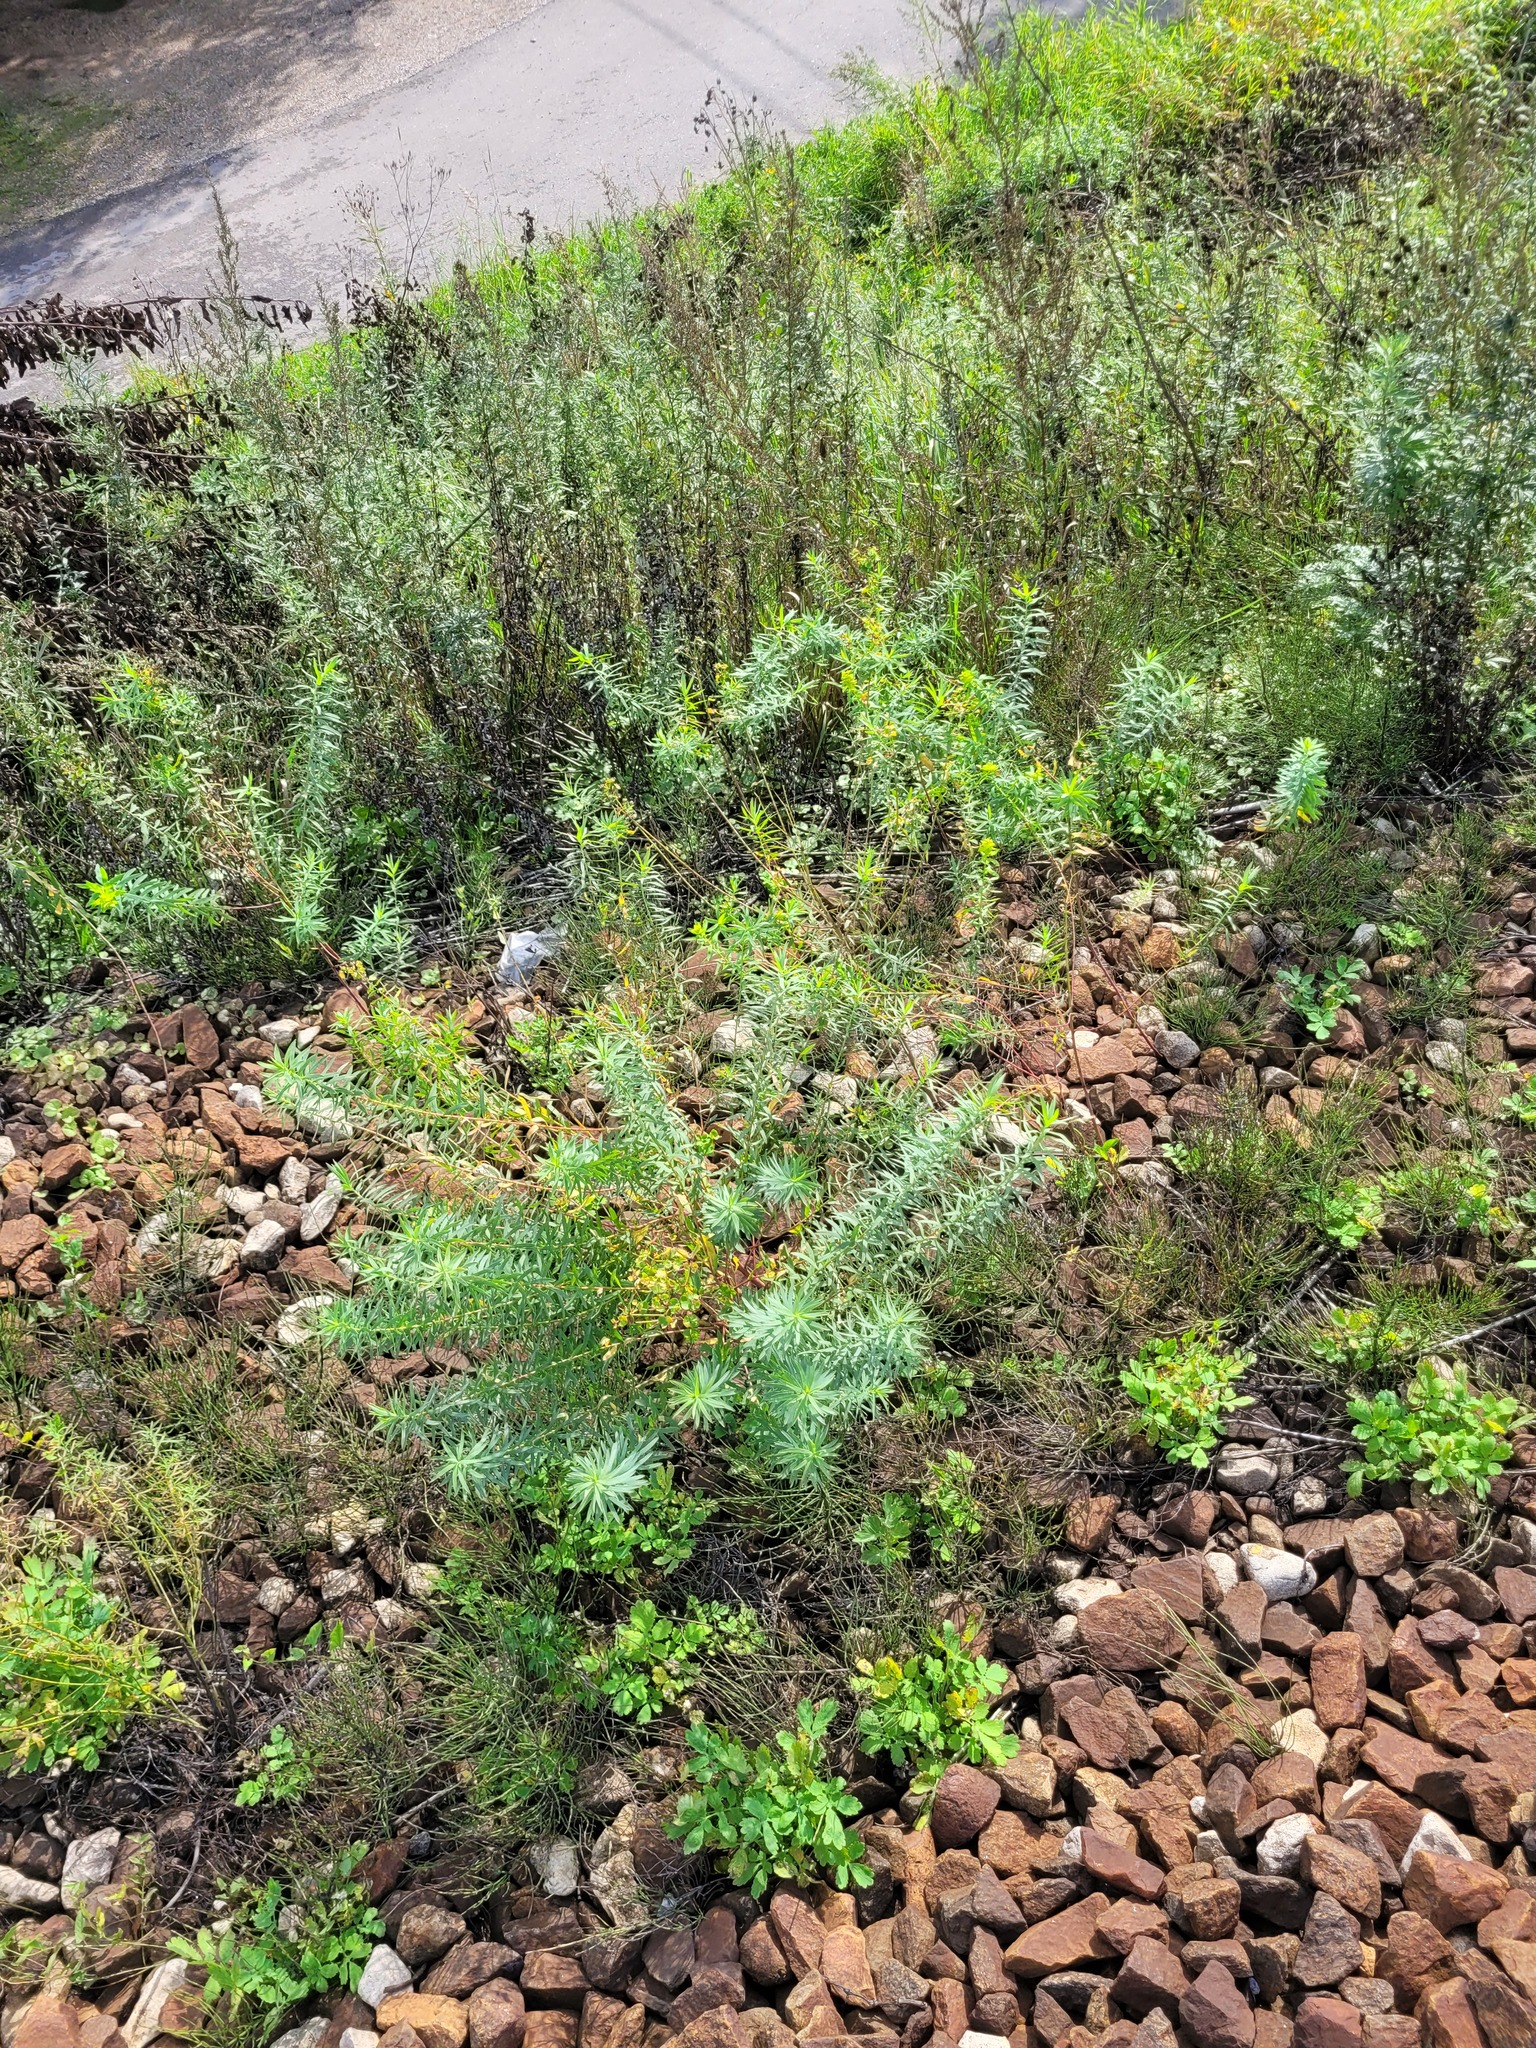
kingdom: Plantae
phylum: Tracheophyta
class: Magnoliopsida
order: Malpighiales
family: Euphorbiaceae
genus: Euphorbia
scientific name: Euphorbia virgata
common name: Leafy spurge
